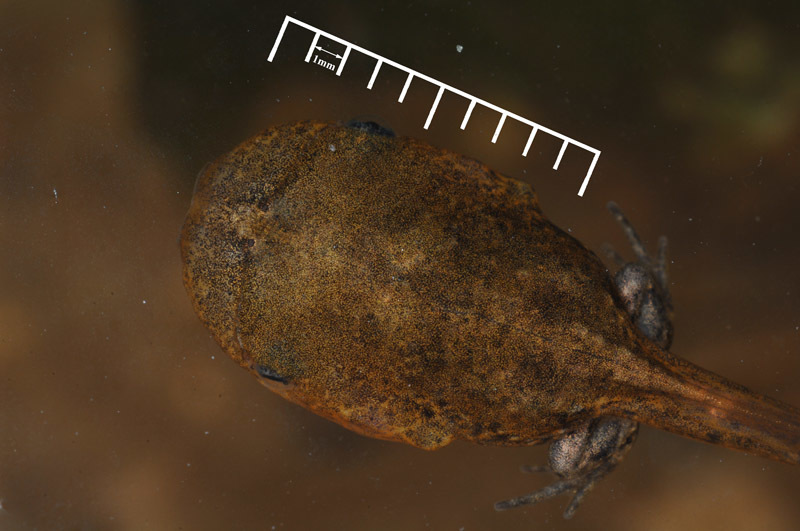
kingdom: Animalia
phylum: Chordata
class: Amphibia
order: Anura
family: Microhylidae
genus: Kaloula
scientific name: Kaloula borealis
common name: Boreal digging frog
